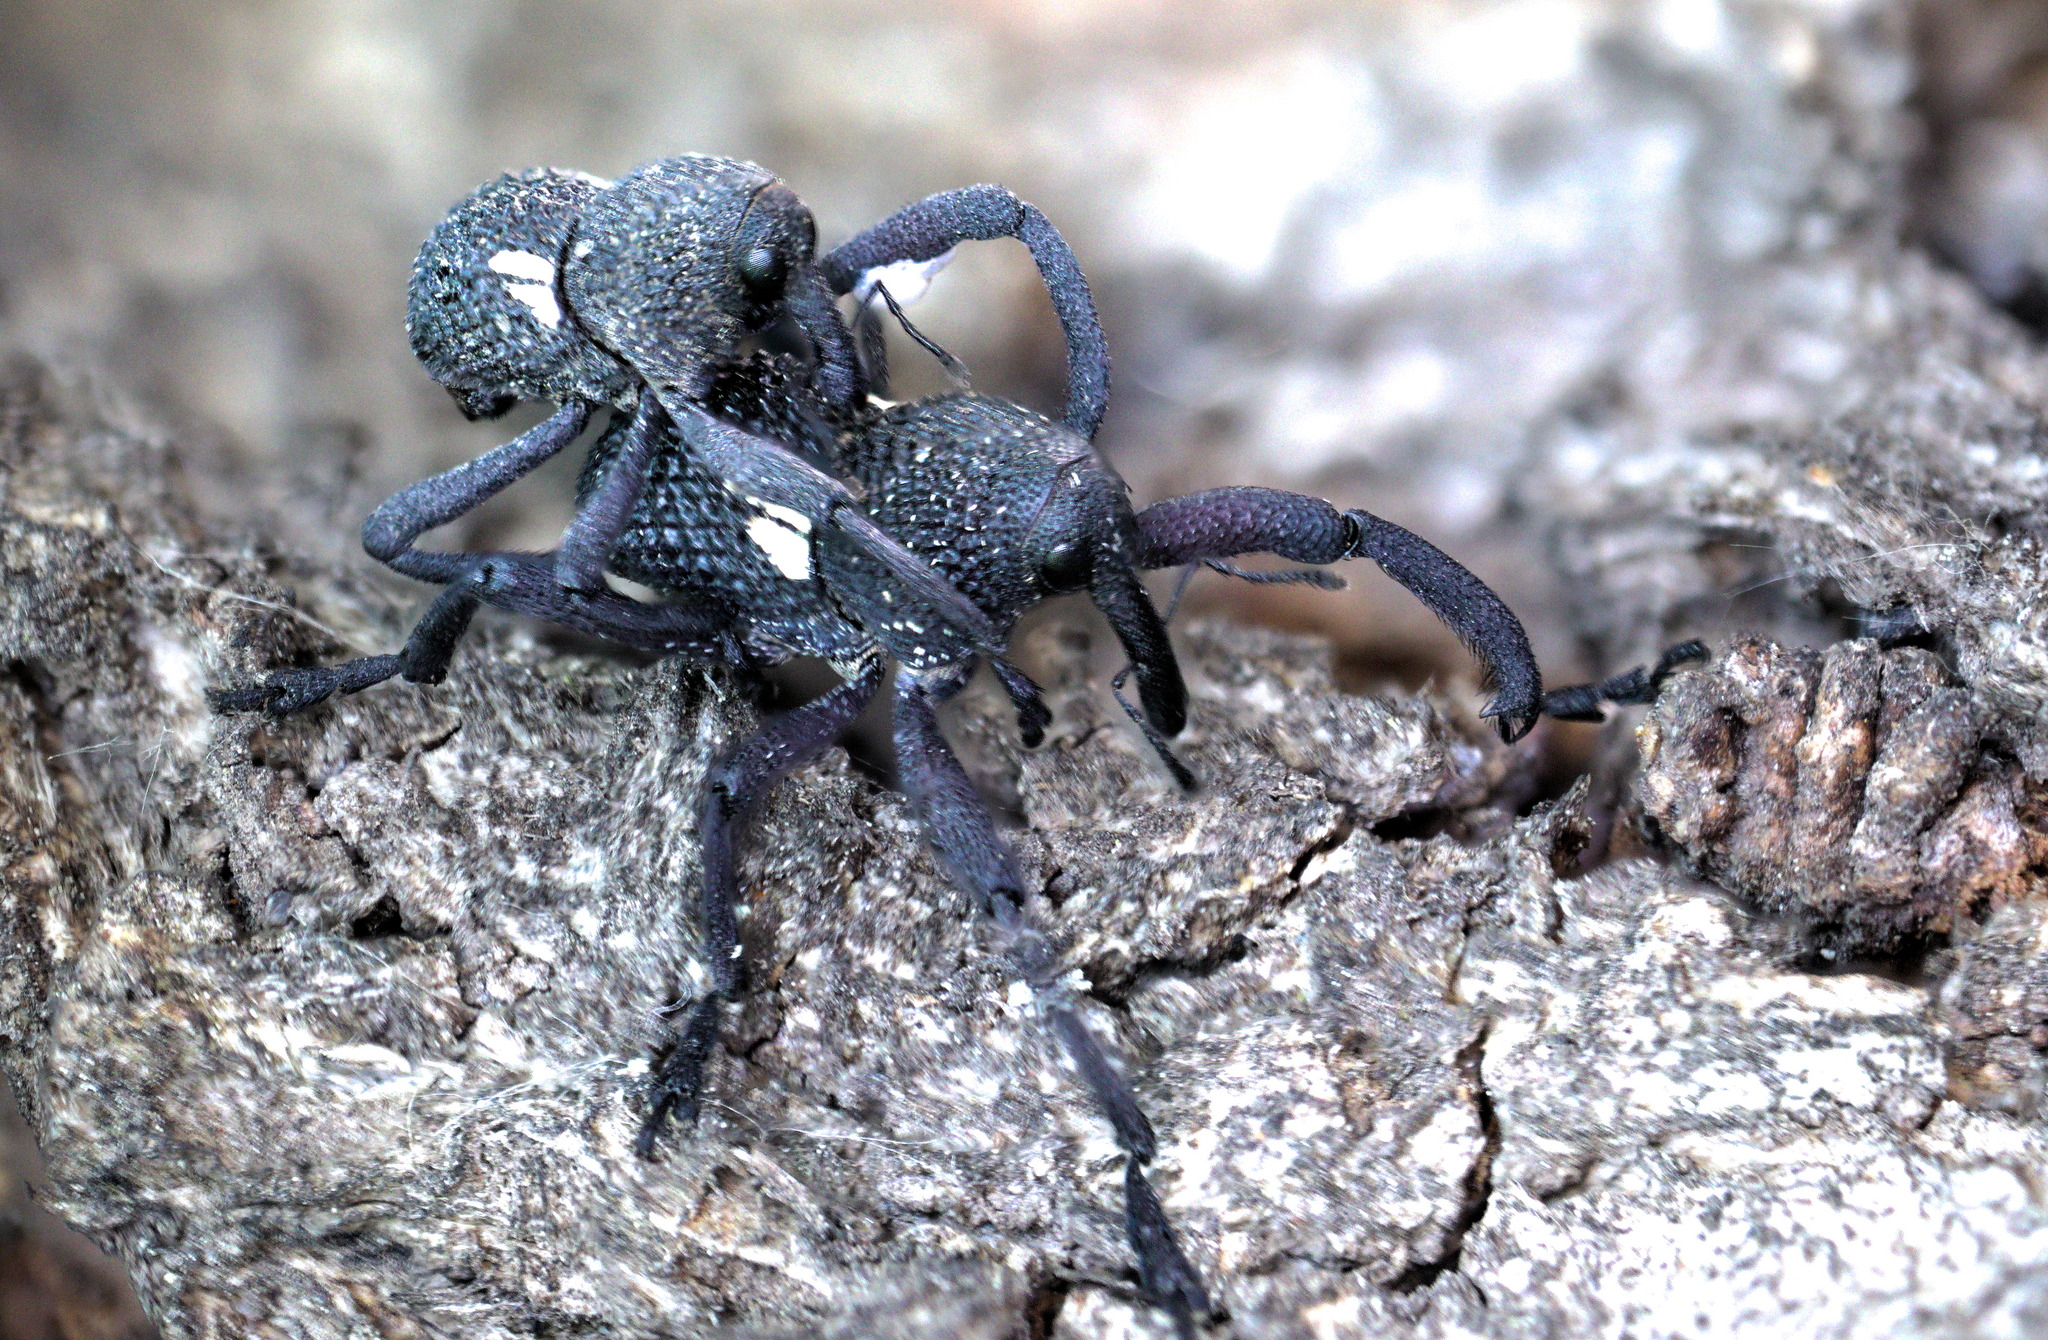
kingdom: Animalia
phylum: Arthropoda
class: Insecta
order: Coleoptera
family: Curculionidae
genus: Rhyephenes
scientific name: Rhyephenes humeralis
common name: Araè±ita chilena del pino
